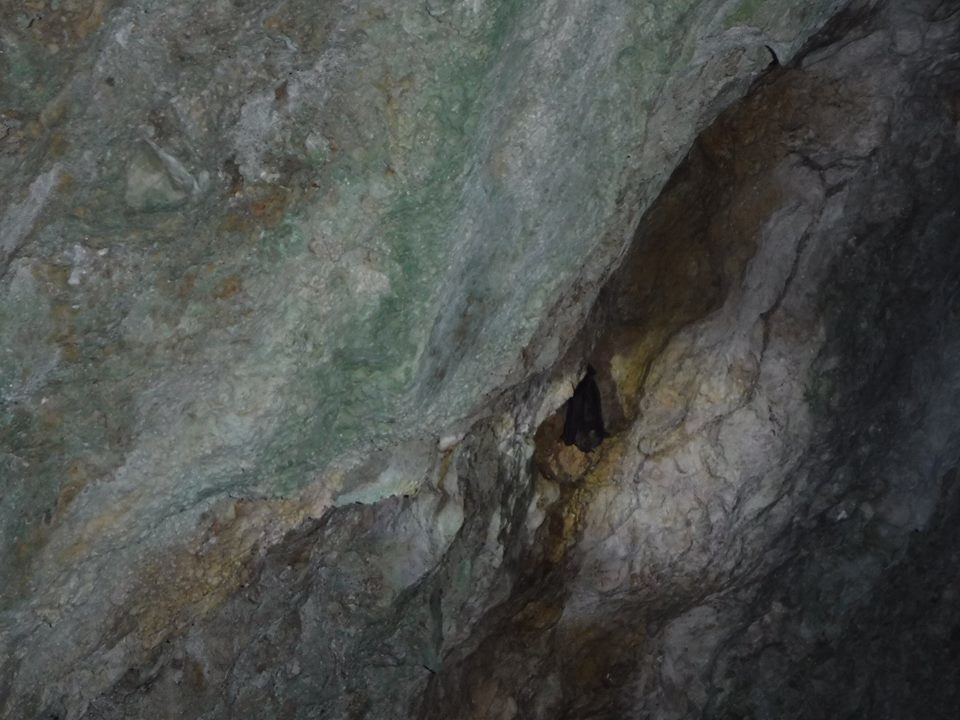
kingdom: Animalia
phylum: Chordata
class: Mammalia
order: Chiroptera
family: Phyllostomidae
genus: Artibeus
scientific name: Artibeus jamaicensis
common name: Jamaican fruit-eating bat
